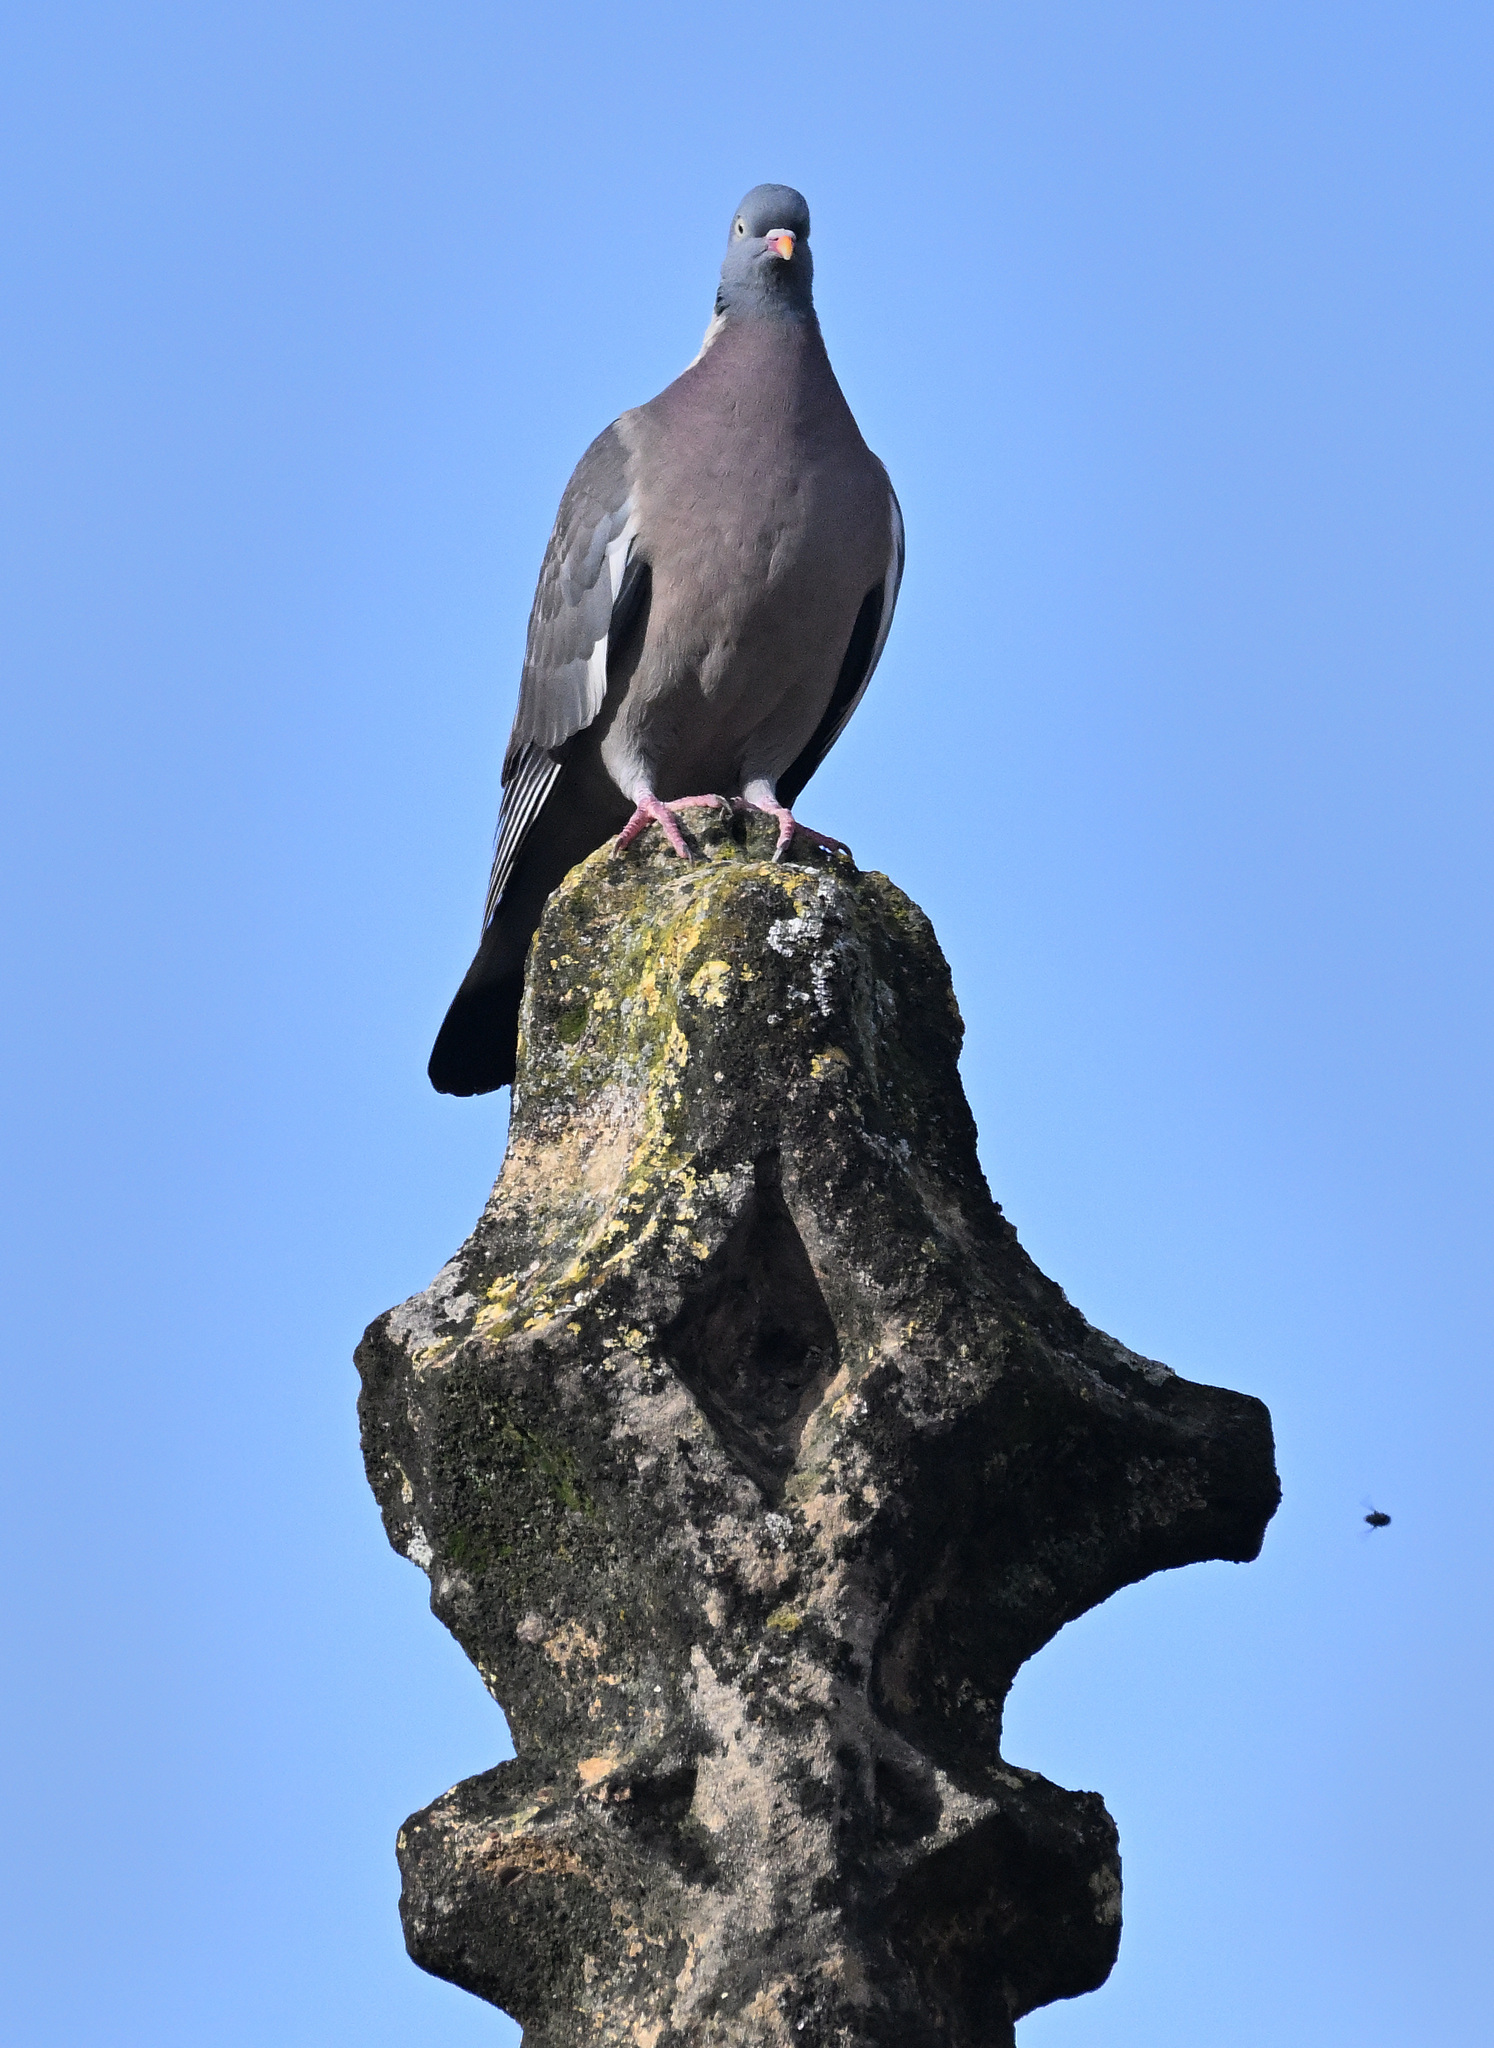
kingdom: Animalia
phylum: Chordata
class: Aves
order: Columbiformes
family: Columbidae
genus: Columba
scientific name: Columba palumbus
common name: Common wood pigeon
